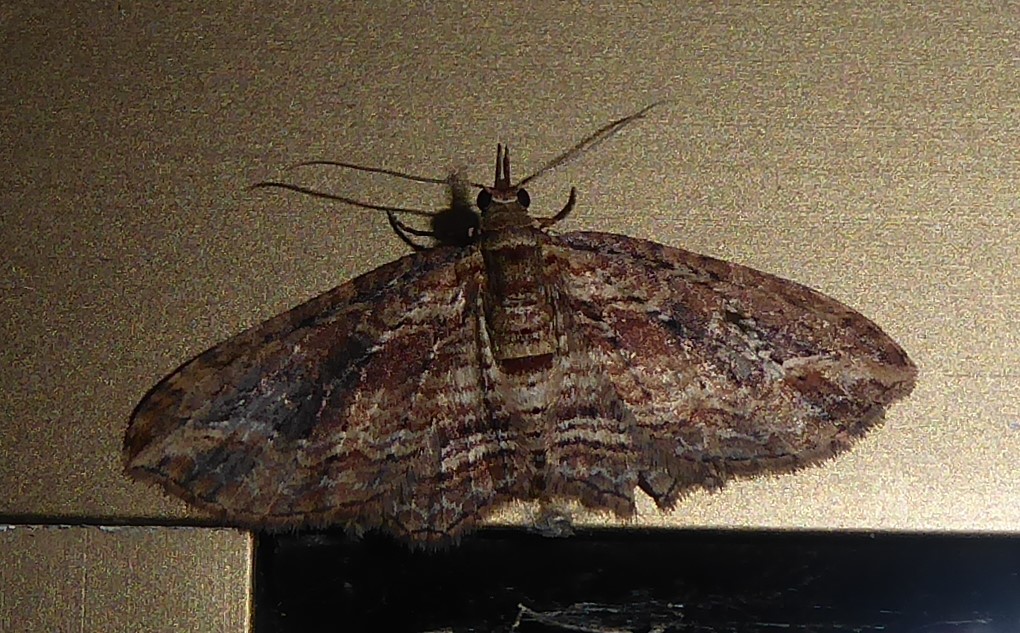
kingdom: Animalia
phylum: Arthropoda
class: Insecta
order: Lepidoptera
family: Geometridae
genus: Chloroclystis
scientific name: Chloroclystis filata
